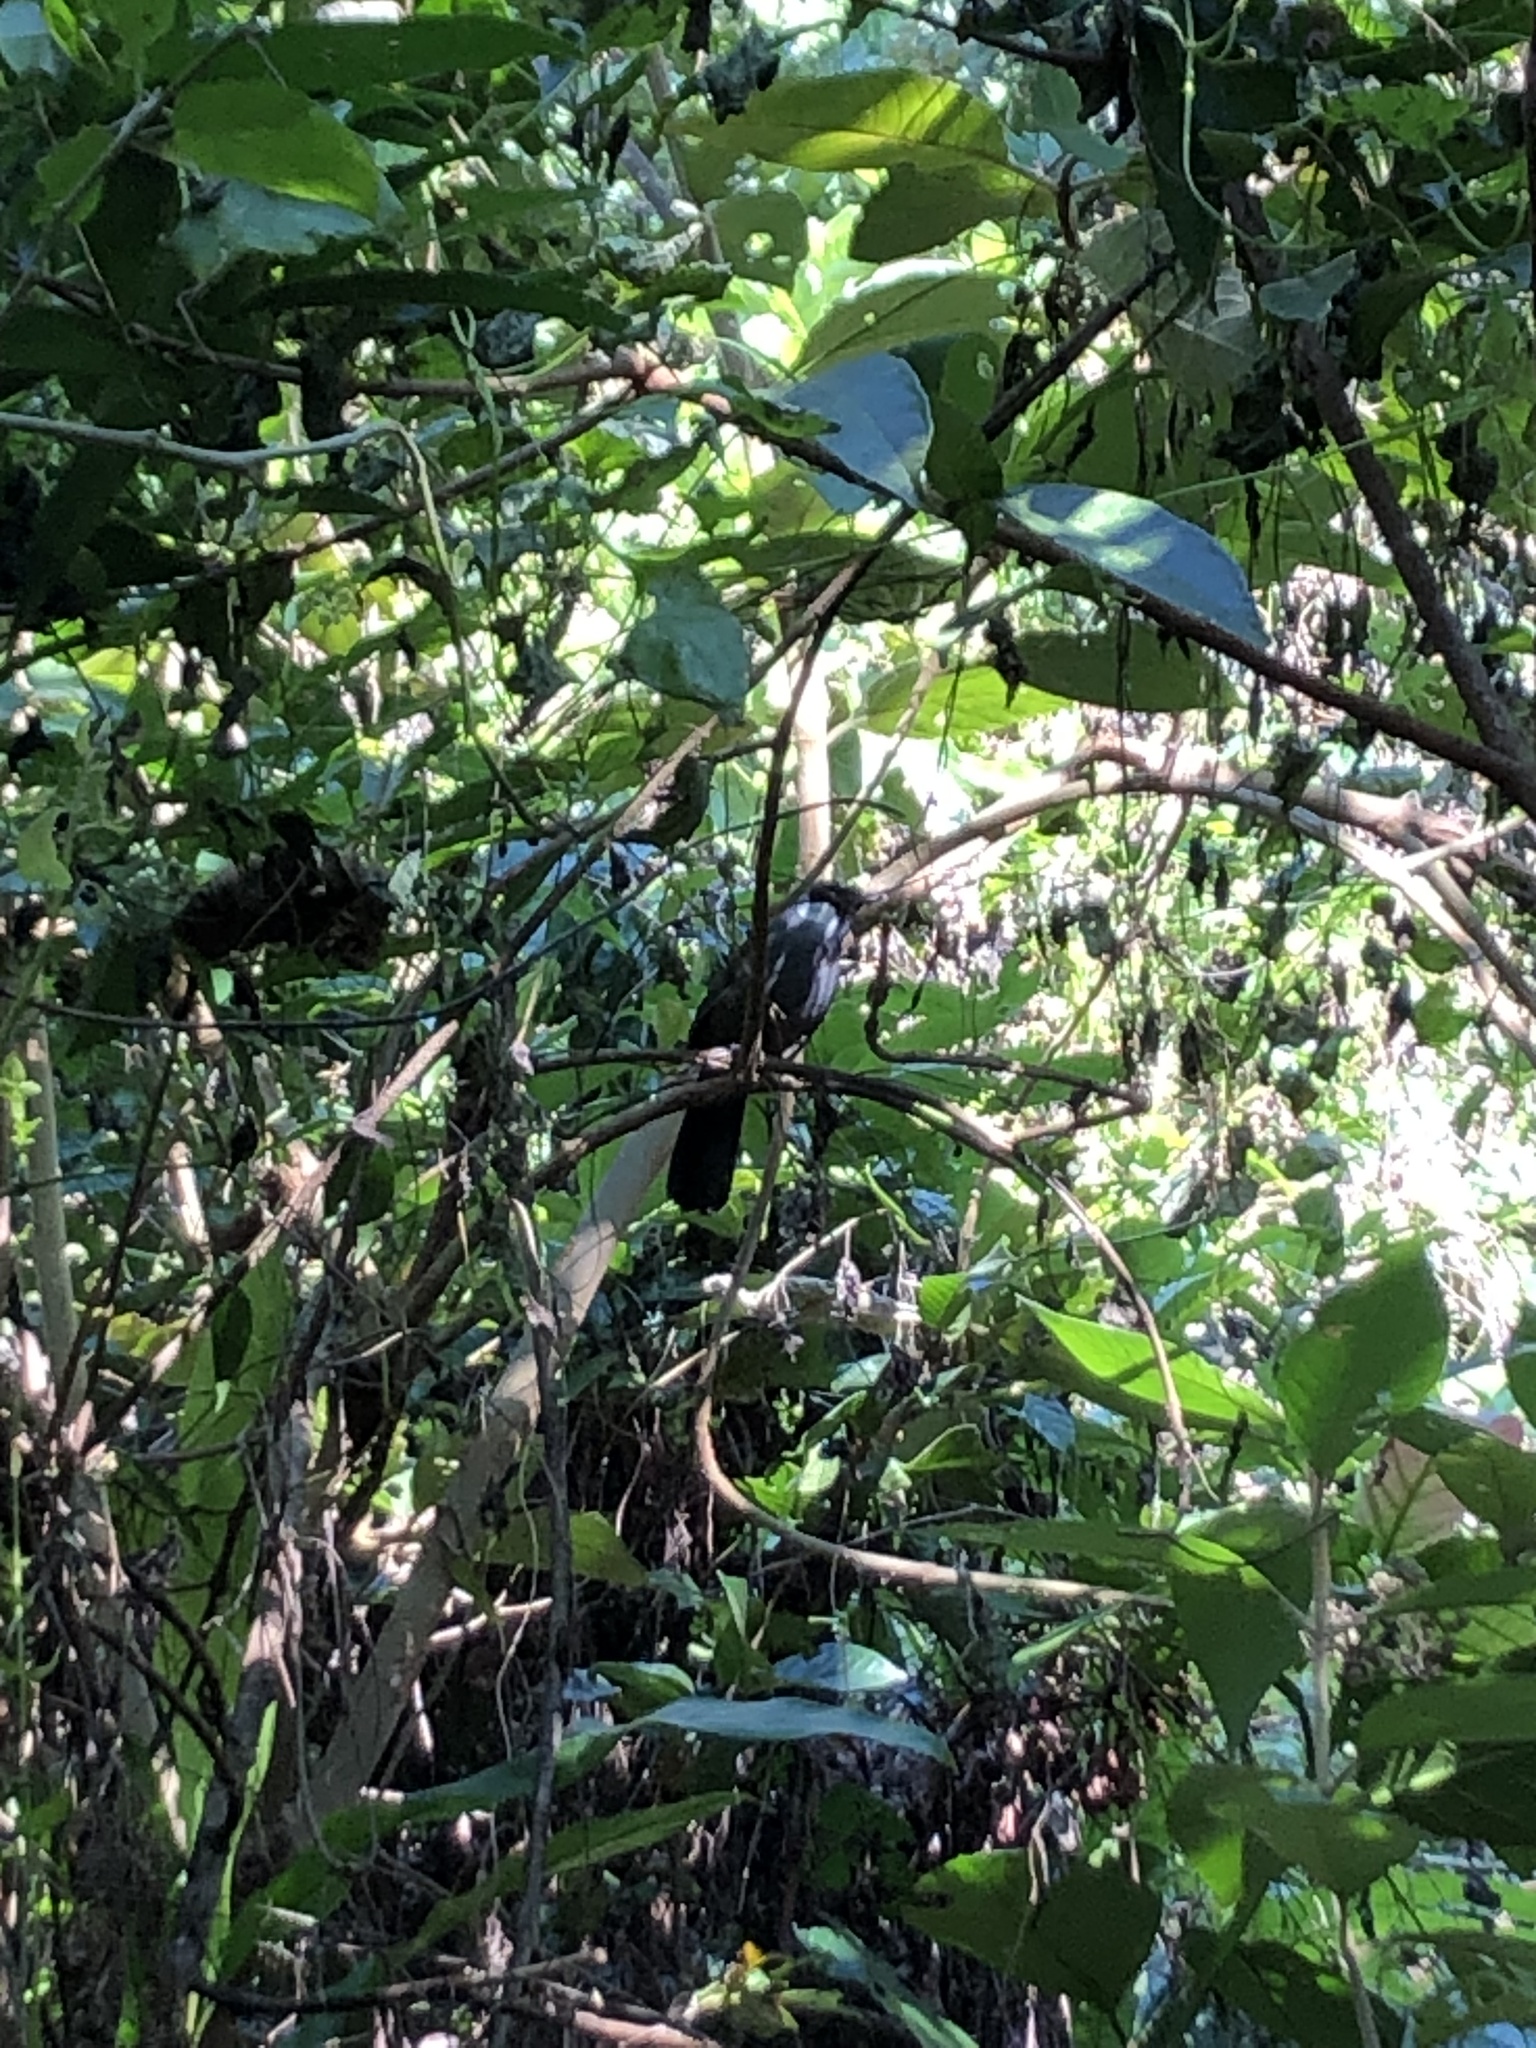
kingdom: Animalia
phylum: Chordata
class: Aves
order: Passeriformes
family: Leiothrichidae
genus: Garrulax
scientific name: Garrulax chinensis
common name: Black-throated laughingthrush
